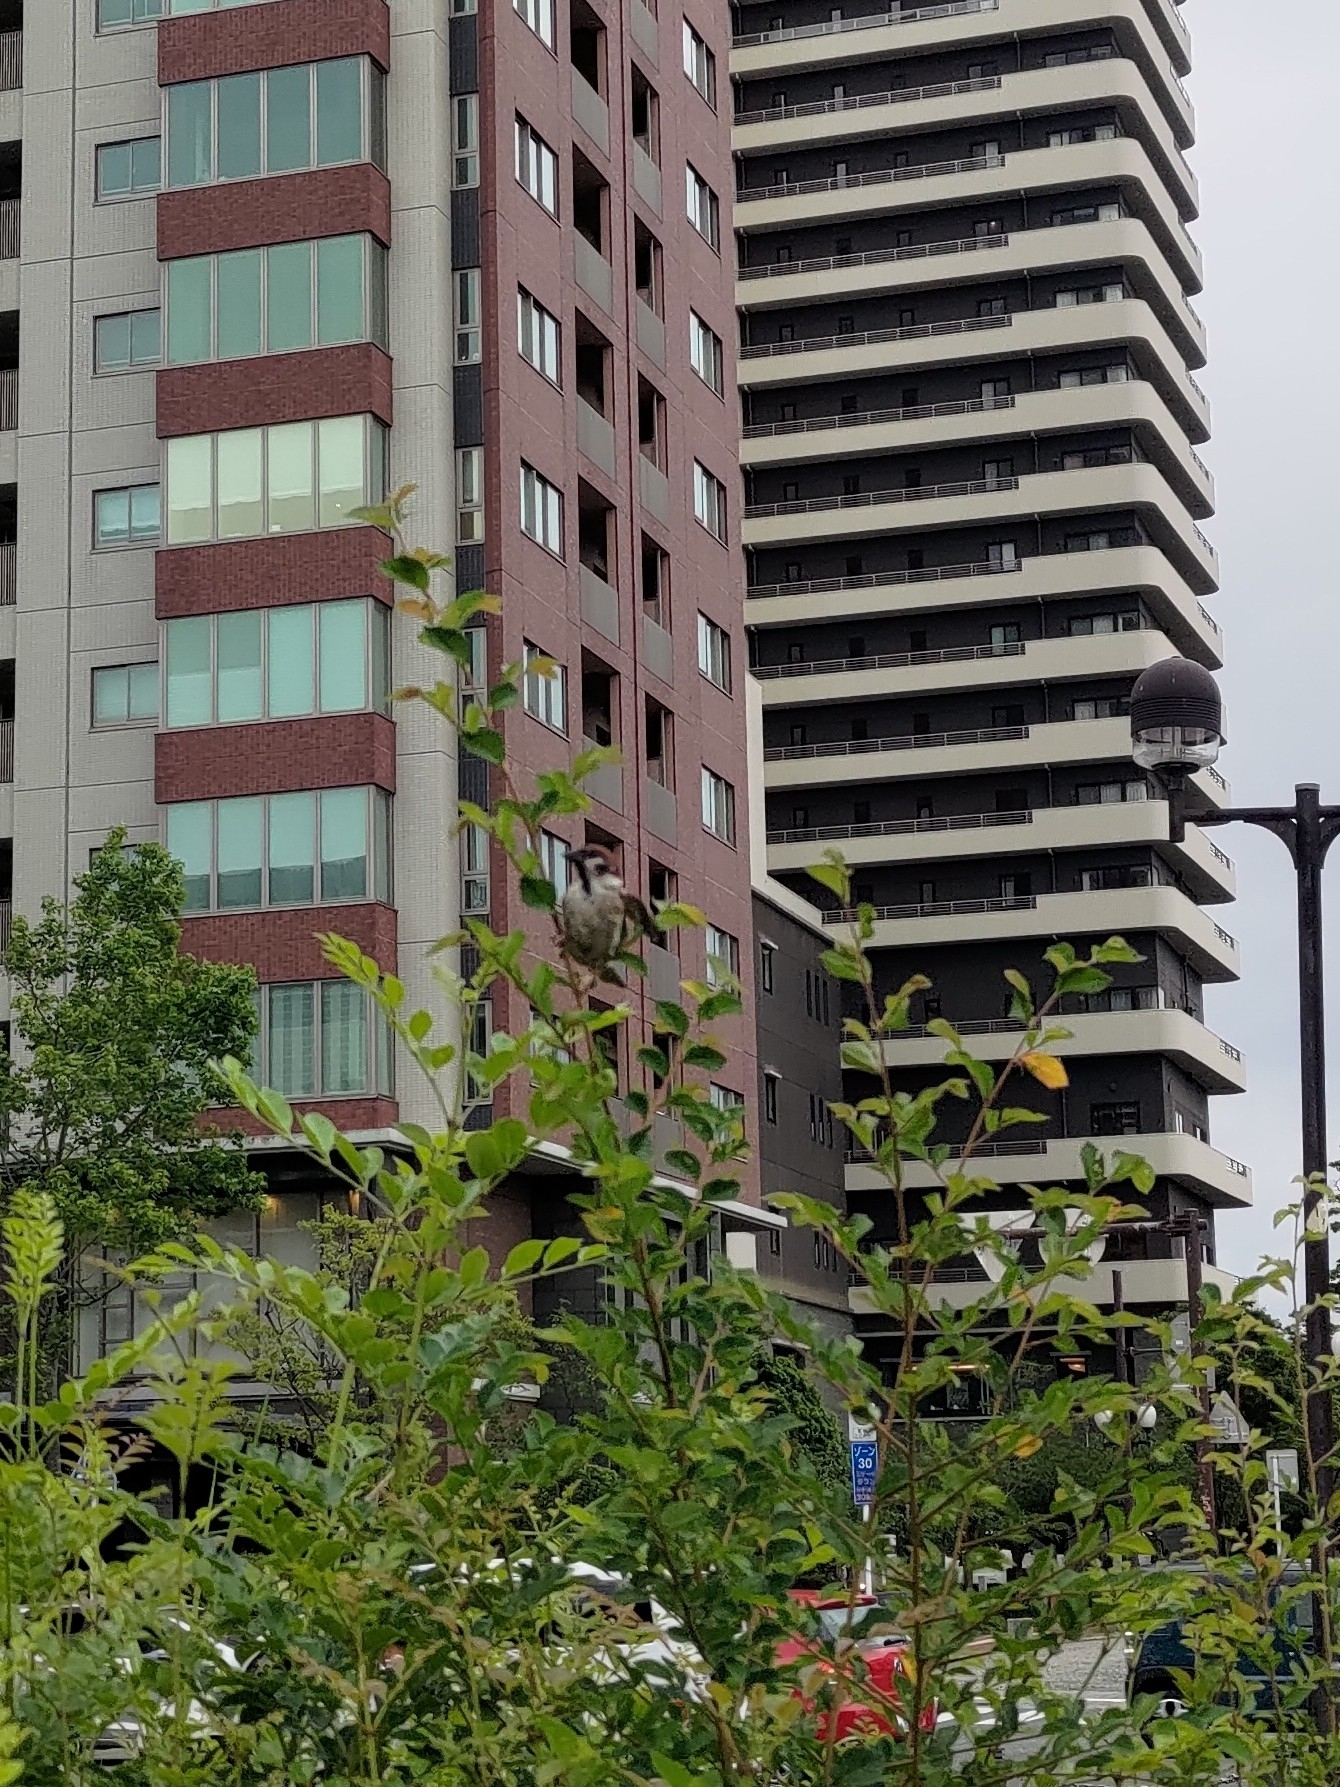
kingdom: Animalia
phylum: Chordata
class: Aves
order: Passeriformes
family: Passeridae
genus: Passer
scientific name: Passer montanus
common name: Eurasian tree sparrow
